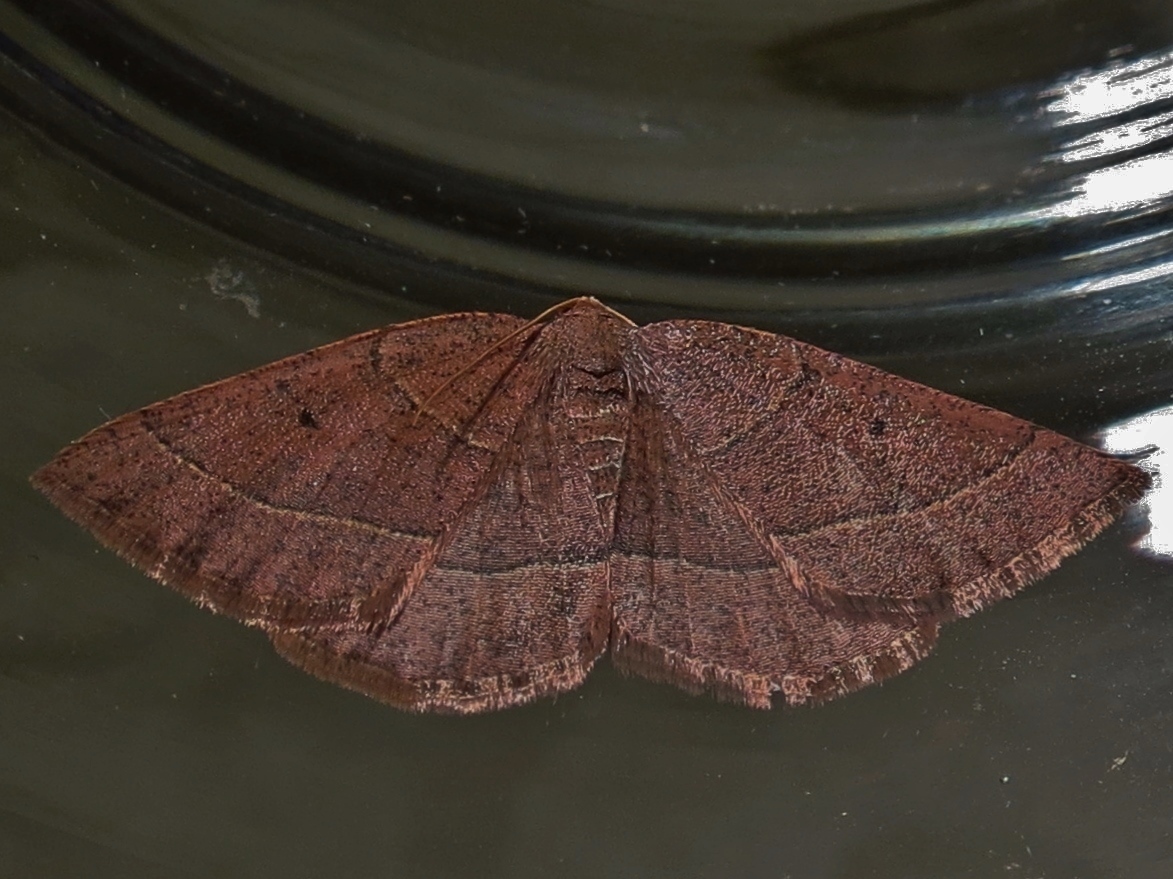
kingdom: Animalia
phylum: Arthropoda
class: Insecta
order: Lepidoptera
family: Geometridae
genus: Episemasia
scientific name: Episemasia cervinaria
